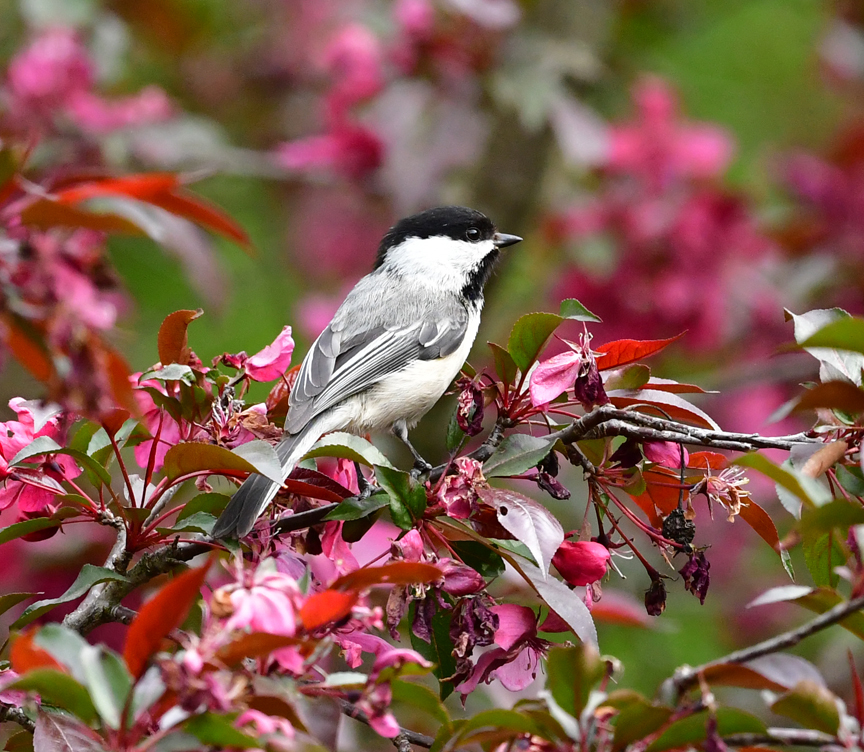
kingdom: Animalia
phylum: Chordata
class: Aves
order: Passeriformes
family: Paridae
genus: Poecile
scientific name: Poecile atricapillus
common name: Black-capped chickadee
